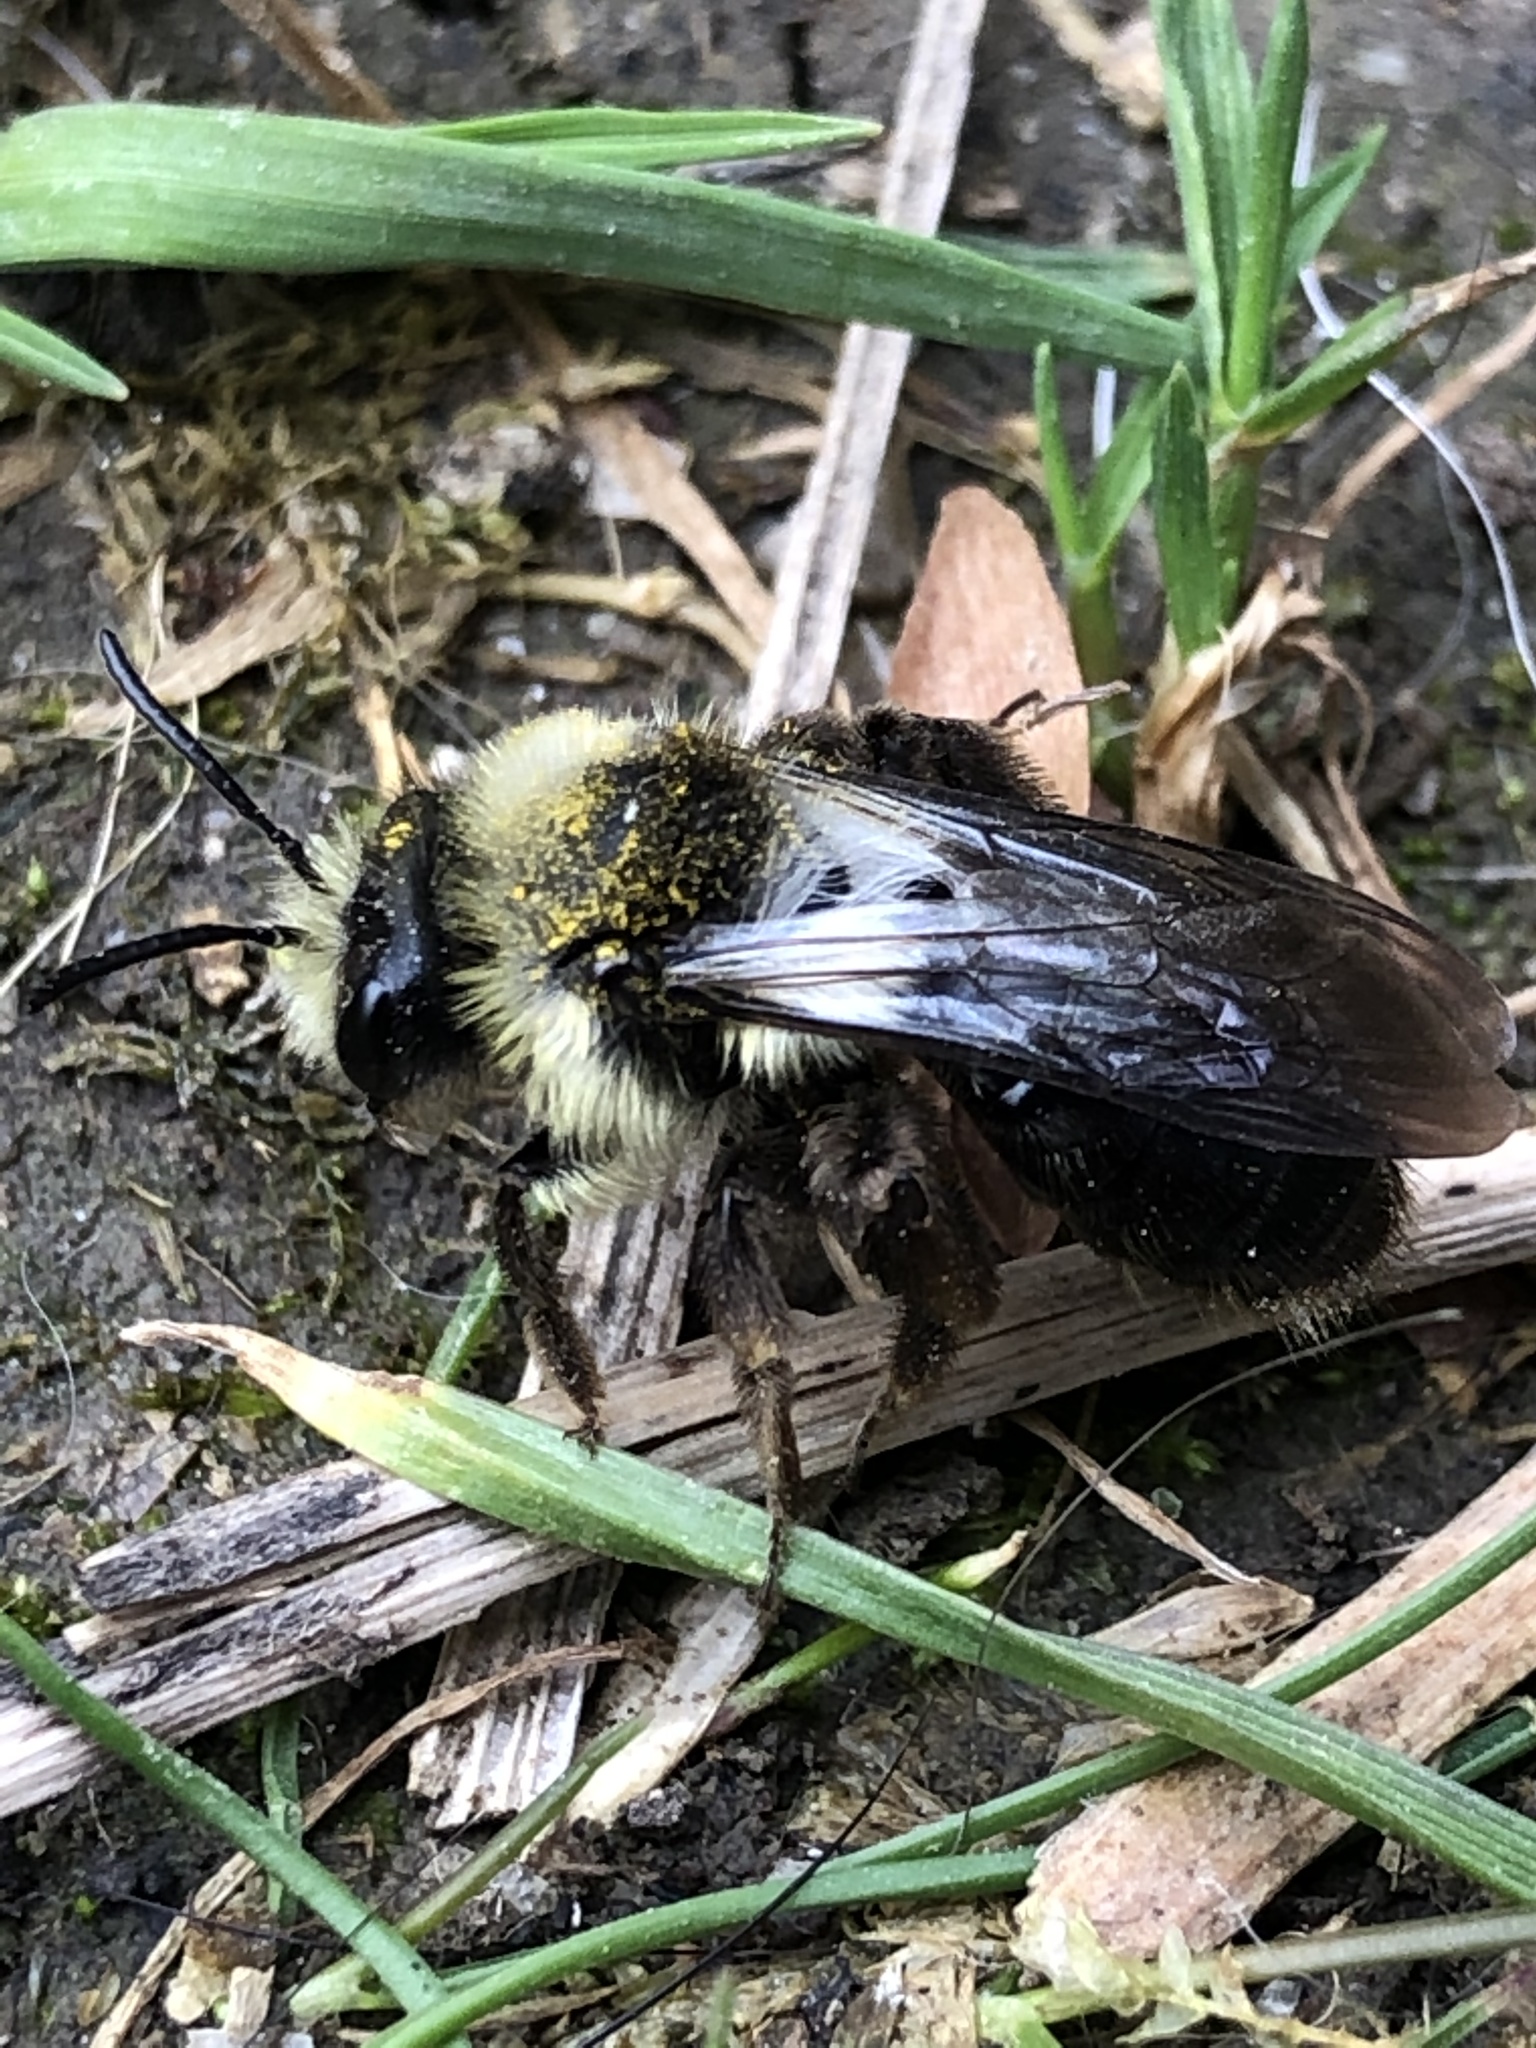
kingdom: Animalia
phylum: Arthropoda
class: Insecta
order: Hymenoptera
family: Andrenidae
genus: Andrena
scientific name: Andrena cineraria
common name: Ashy mining bee
